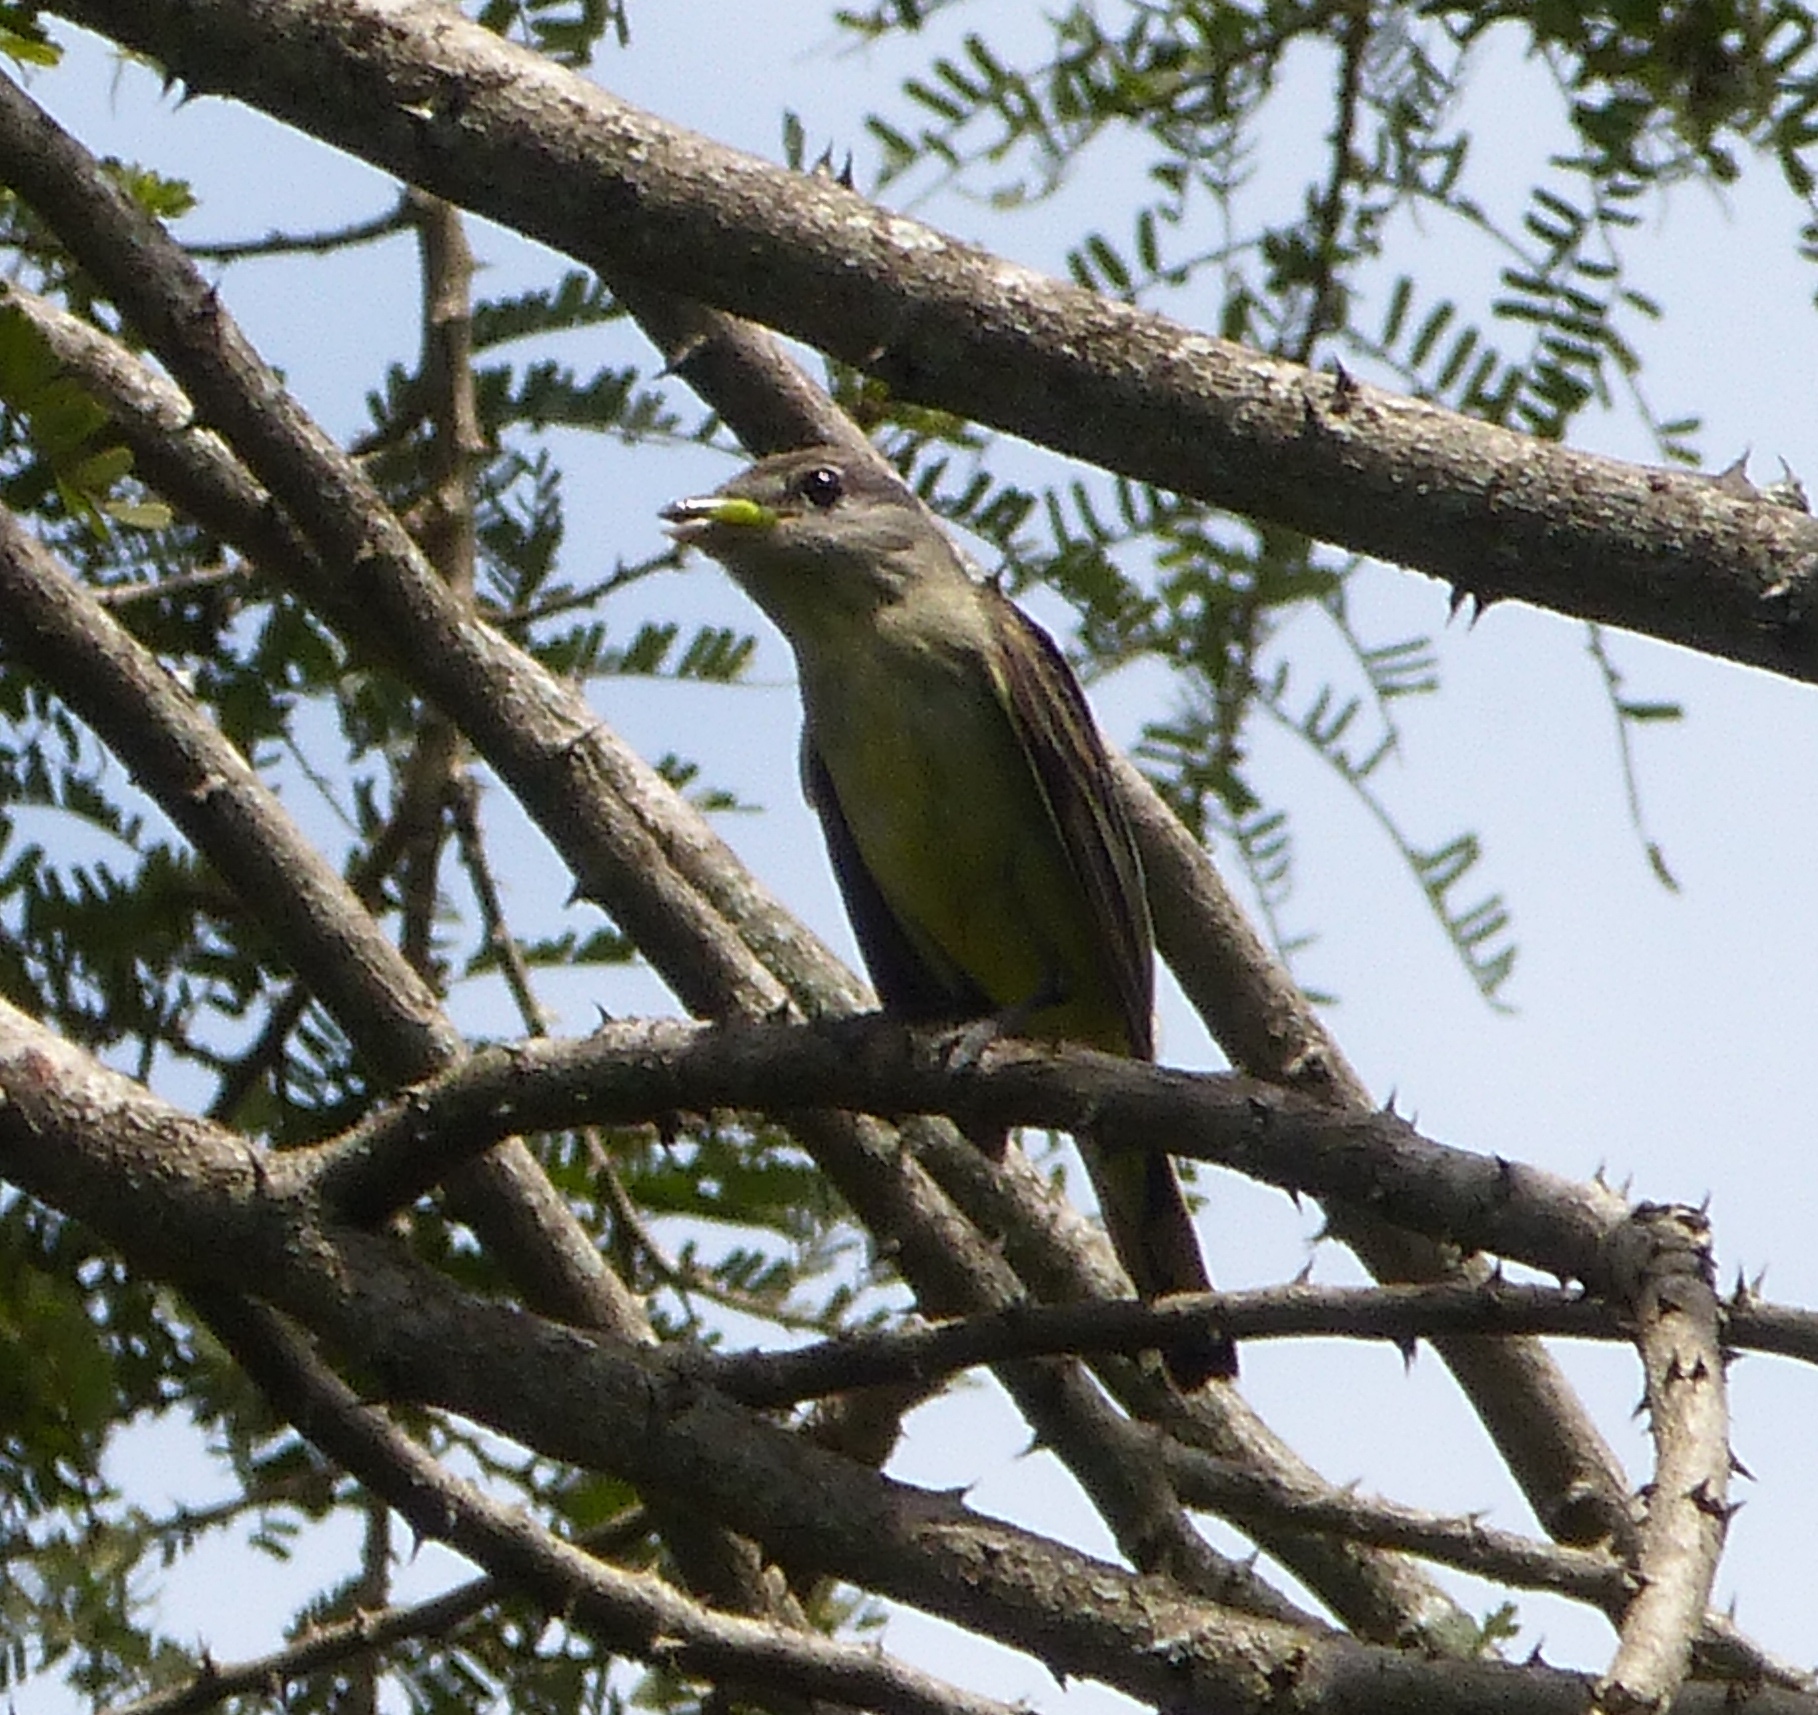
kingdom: Animalia
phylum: Chordata
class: Aves
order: Passeriformes
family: Cotingidae
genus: Pachyramphus
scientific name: Pachyramphus polychopterus
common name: White-winged becard
